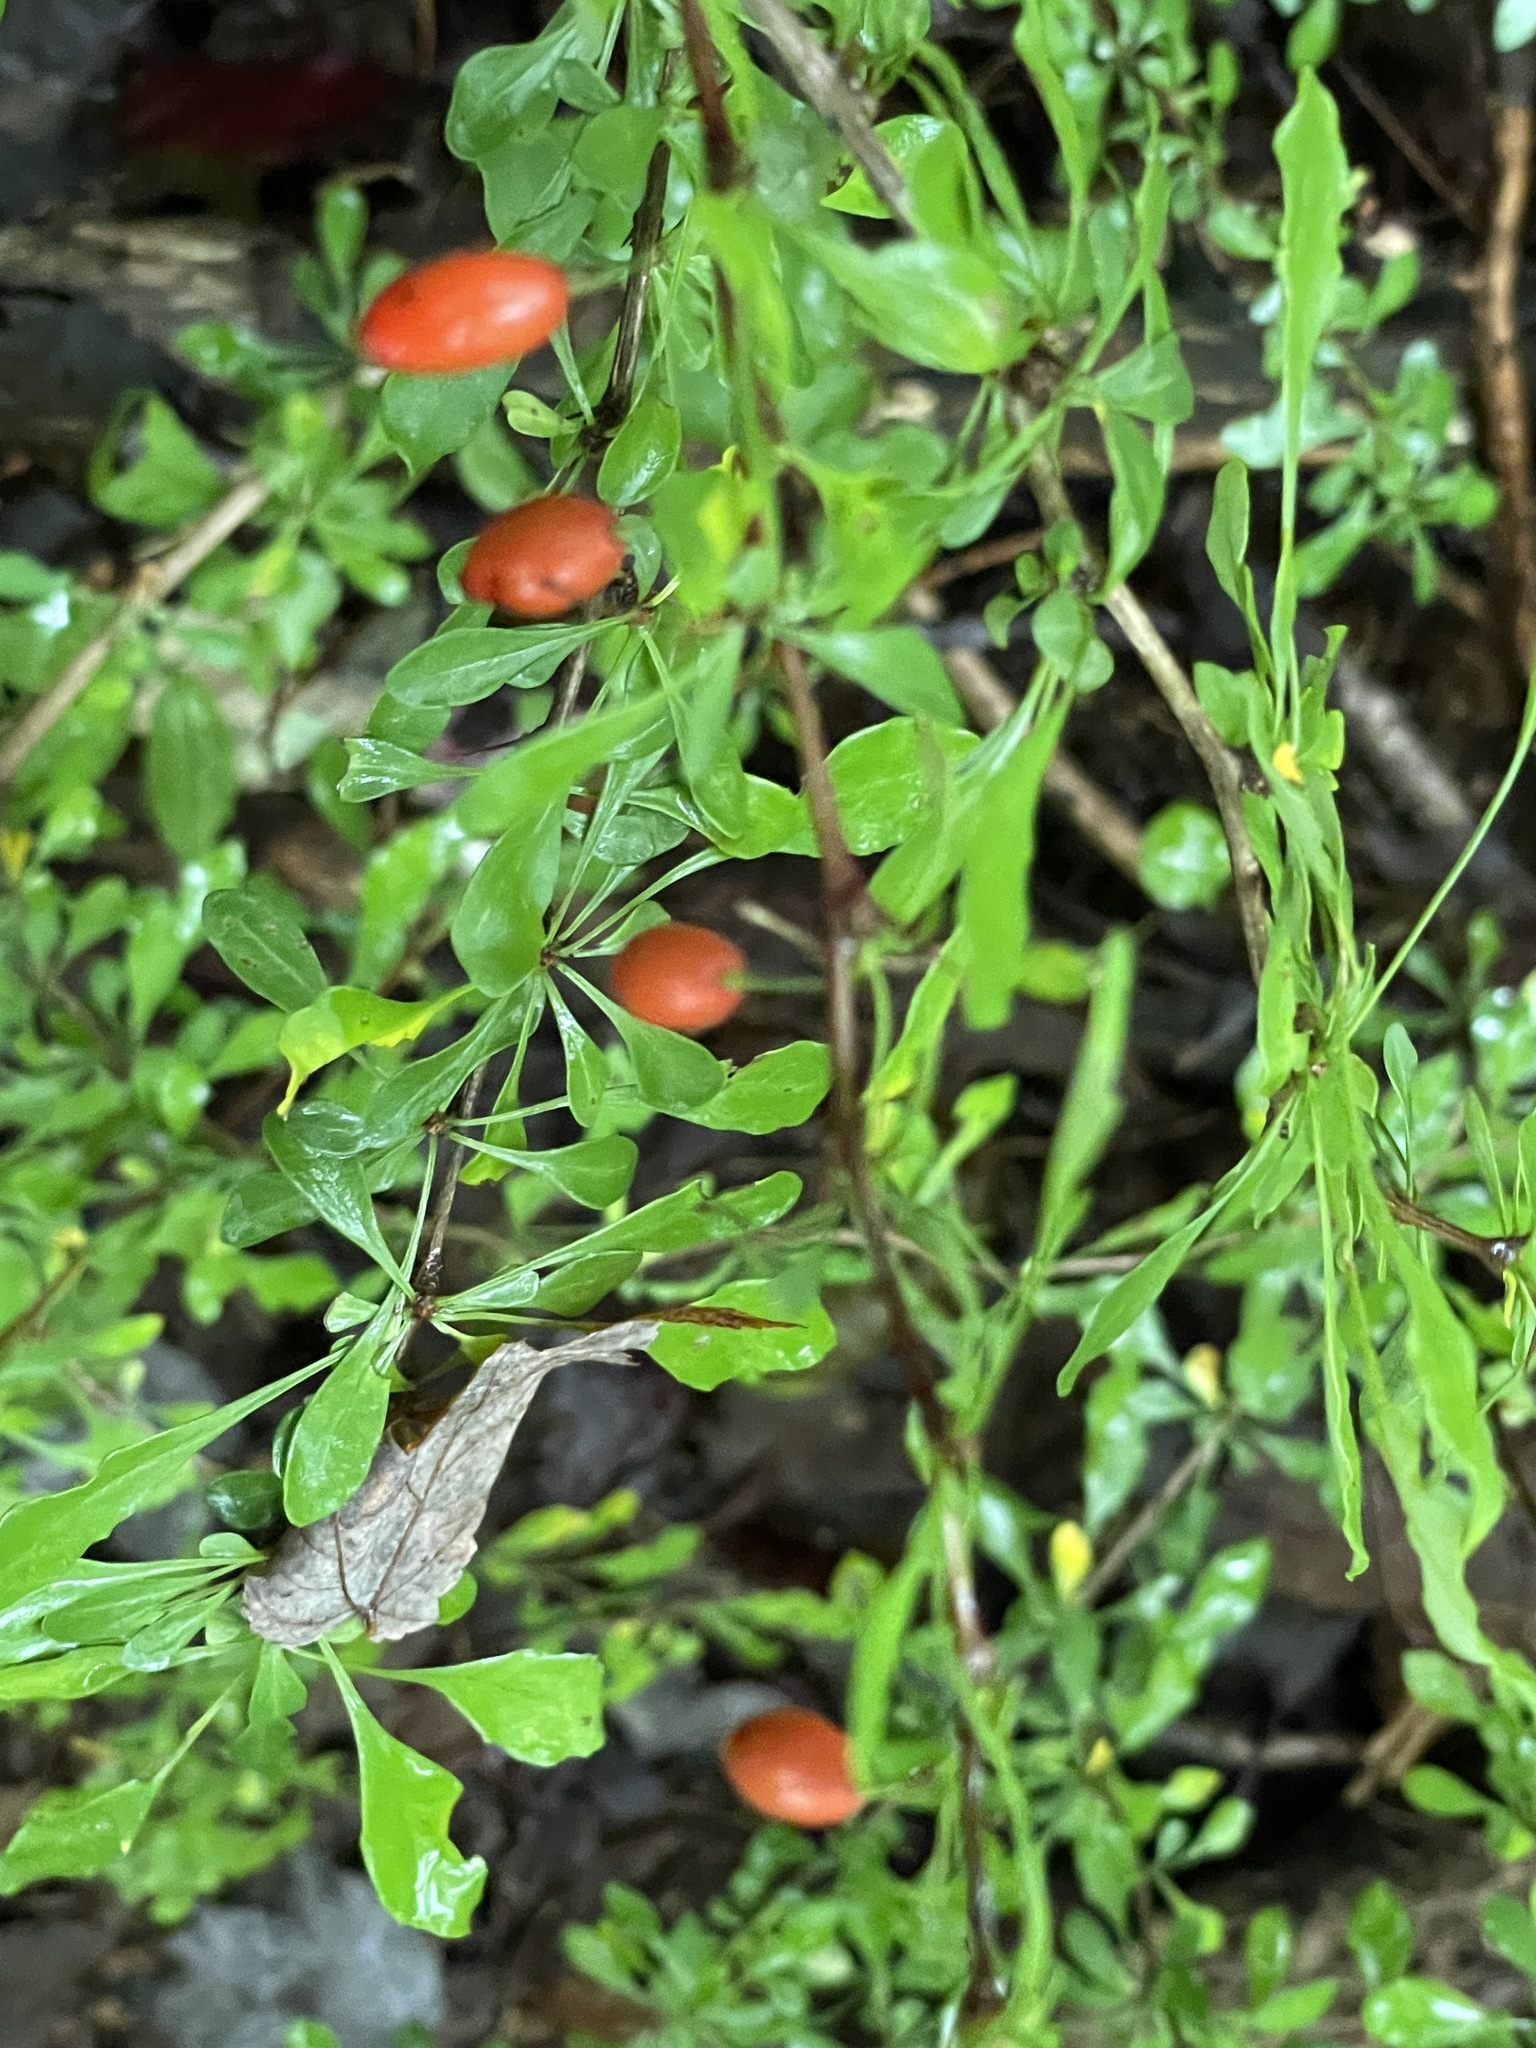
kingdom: Plantae
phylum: Tracheophyta
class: Magnoliopsida
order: Ranunculales
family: Berberidaceae
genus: Berberis
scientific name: Berberis thunbergii
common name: Japanese barberry
